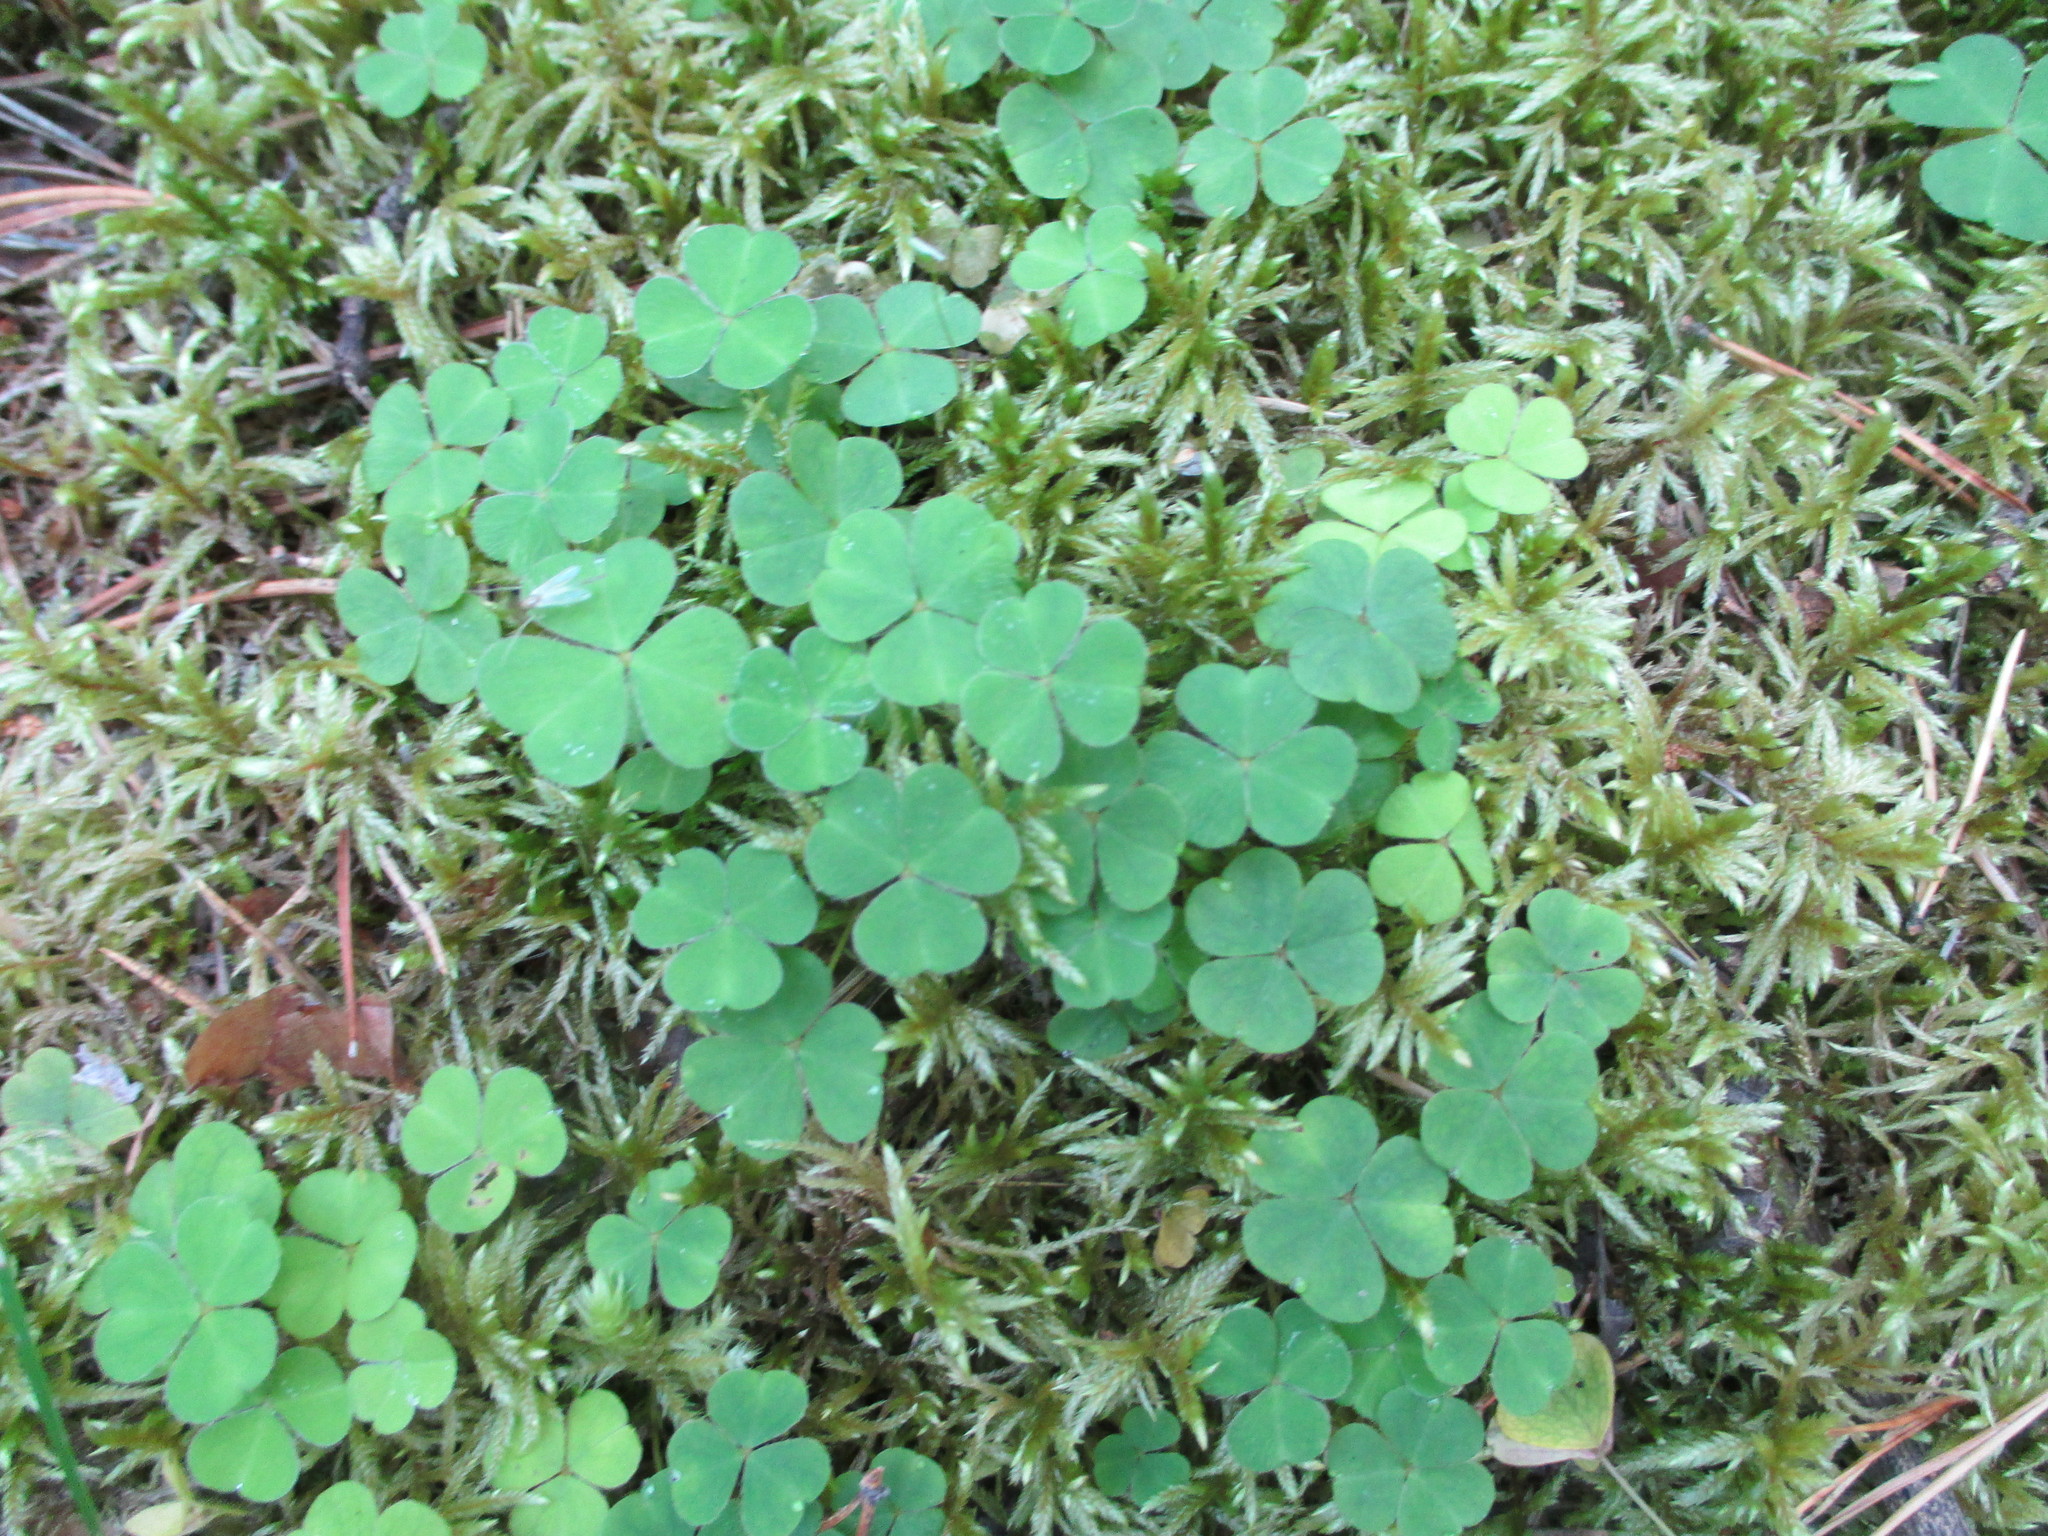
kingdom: Plantae
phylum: Tracheophyta
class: Magnoliopsida
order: Oxalidales
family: Oxalidaceae
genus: Oxalis
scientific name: Oxalis acetosella
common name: Wood-sorrel
